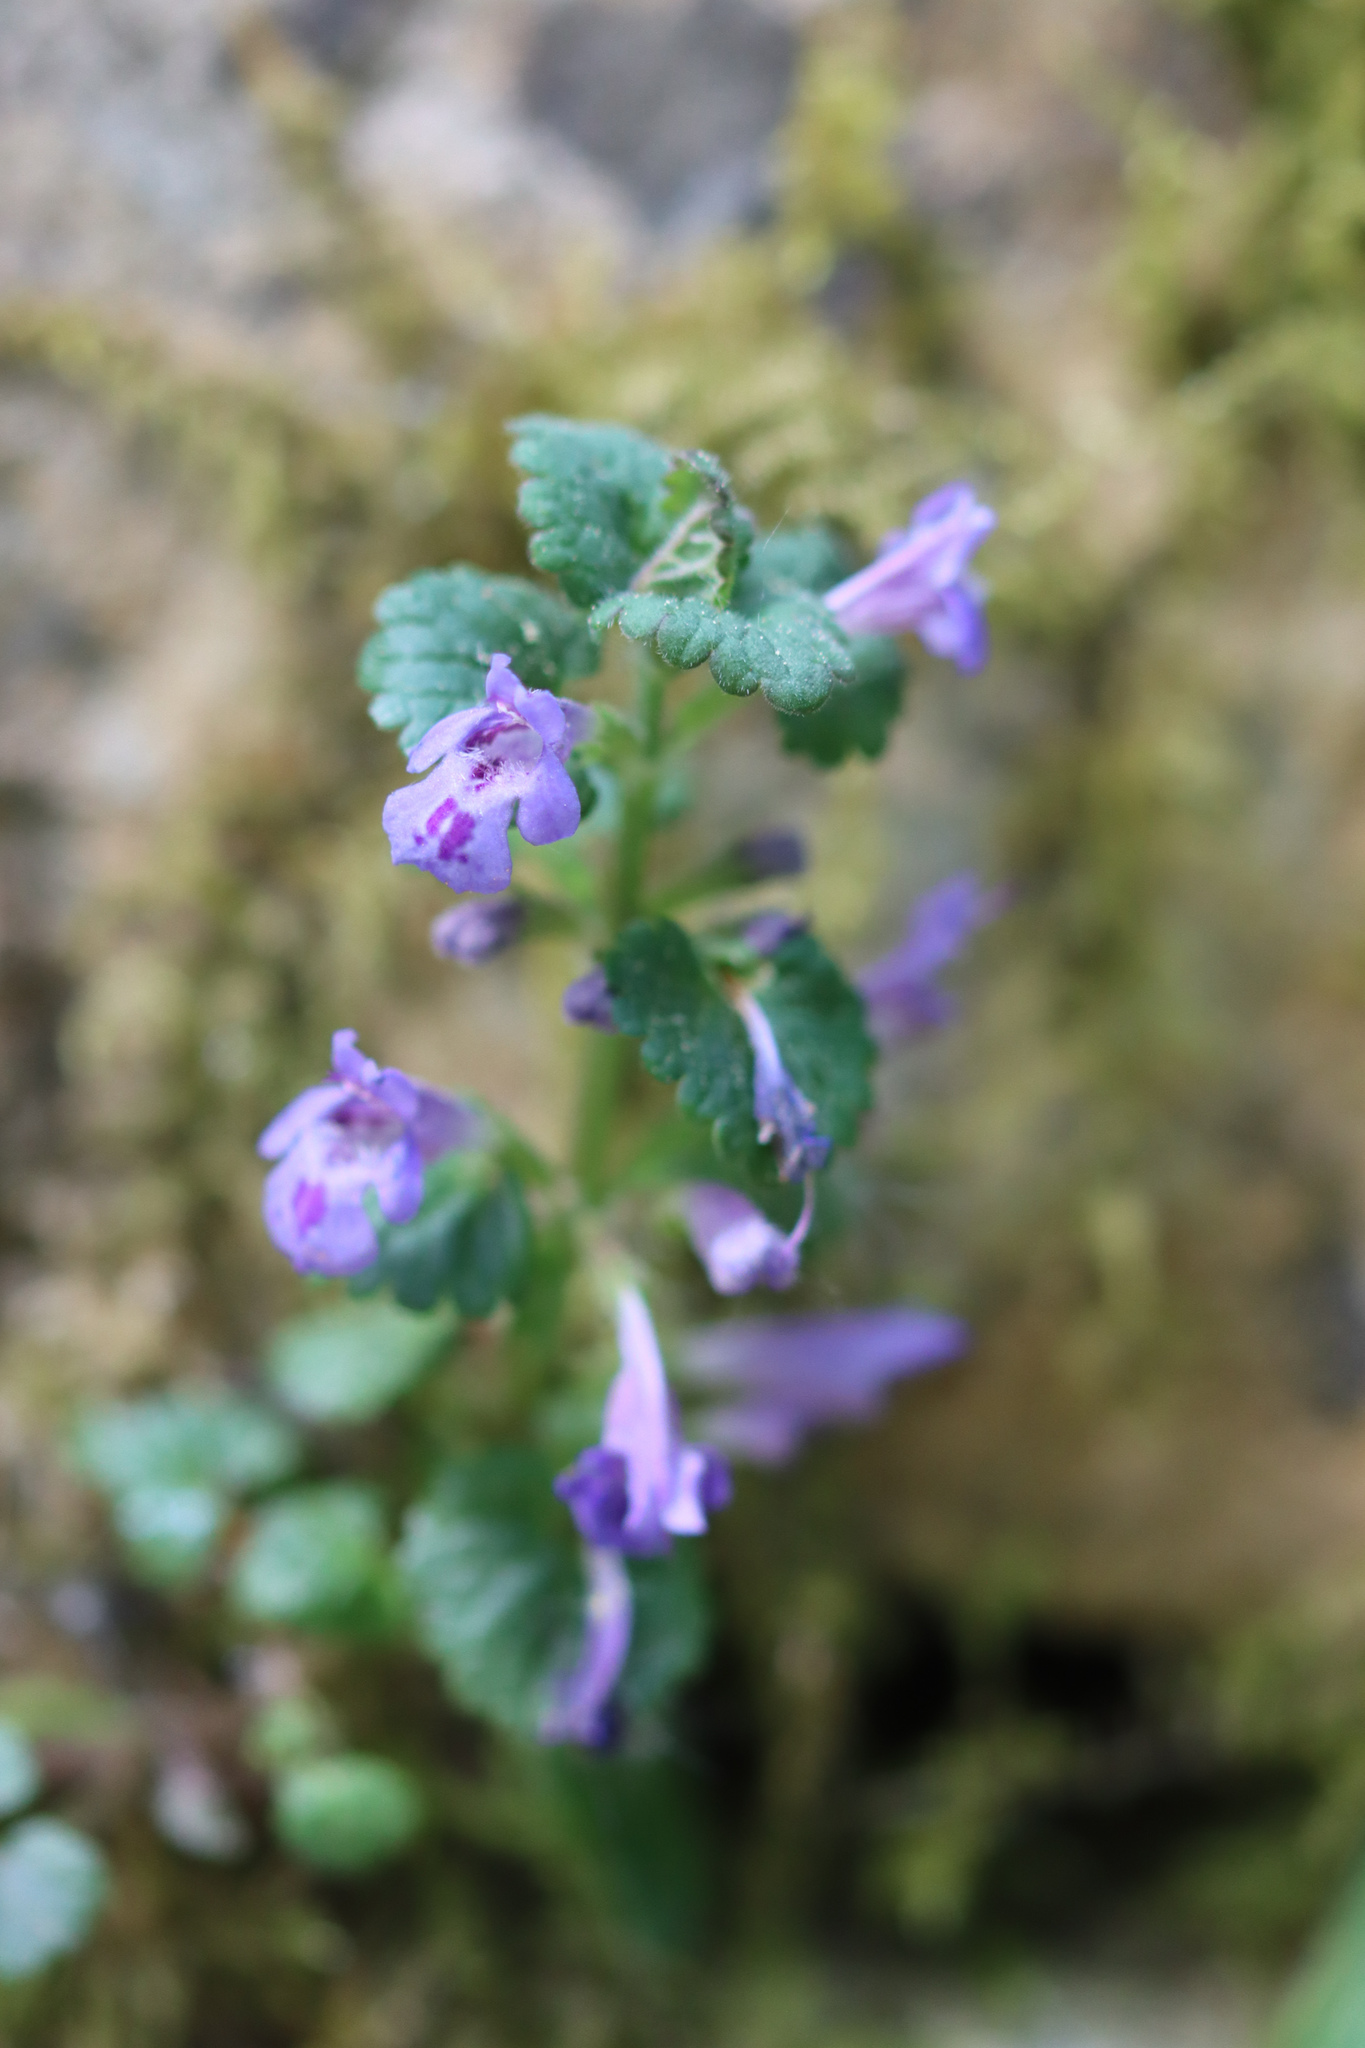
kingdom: Plantae
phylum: Tracheophyta
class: Magnoliopsida
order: Lamiales
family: Lamiaceae
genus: Glechoma
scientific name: Glechoma hederacea
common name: Ground ivy
